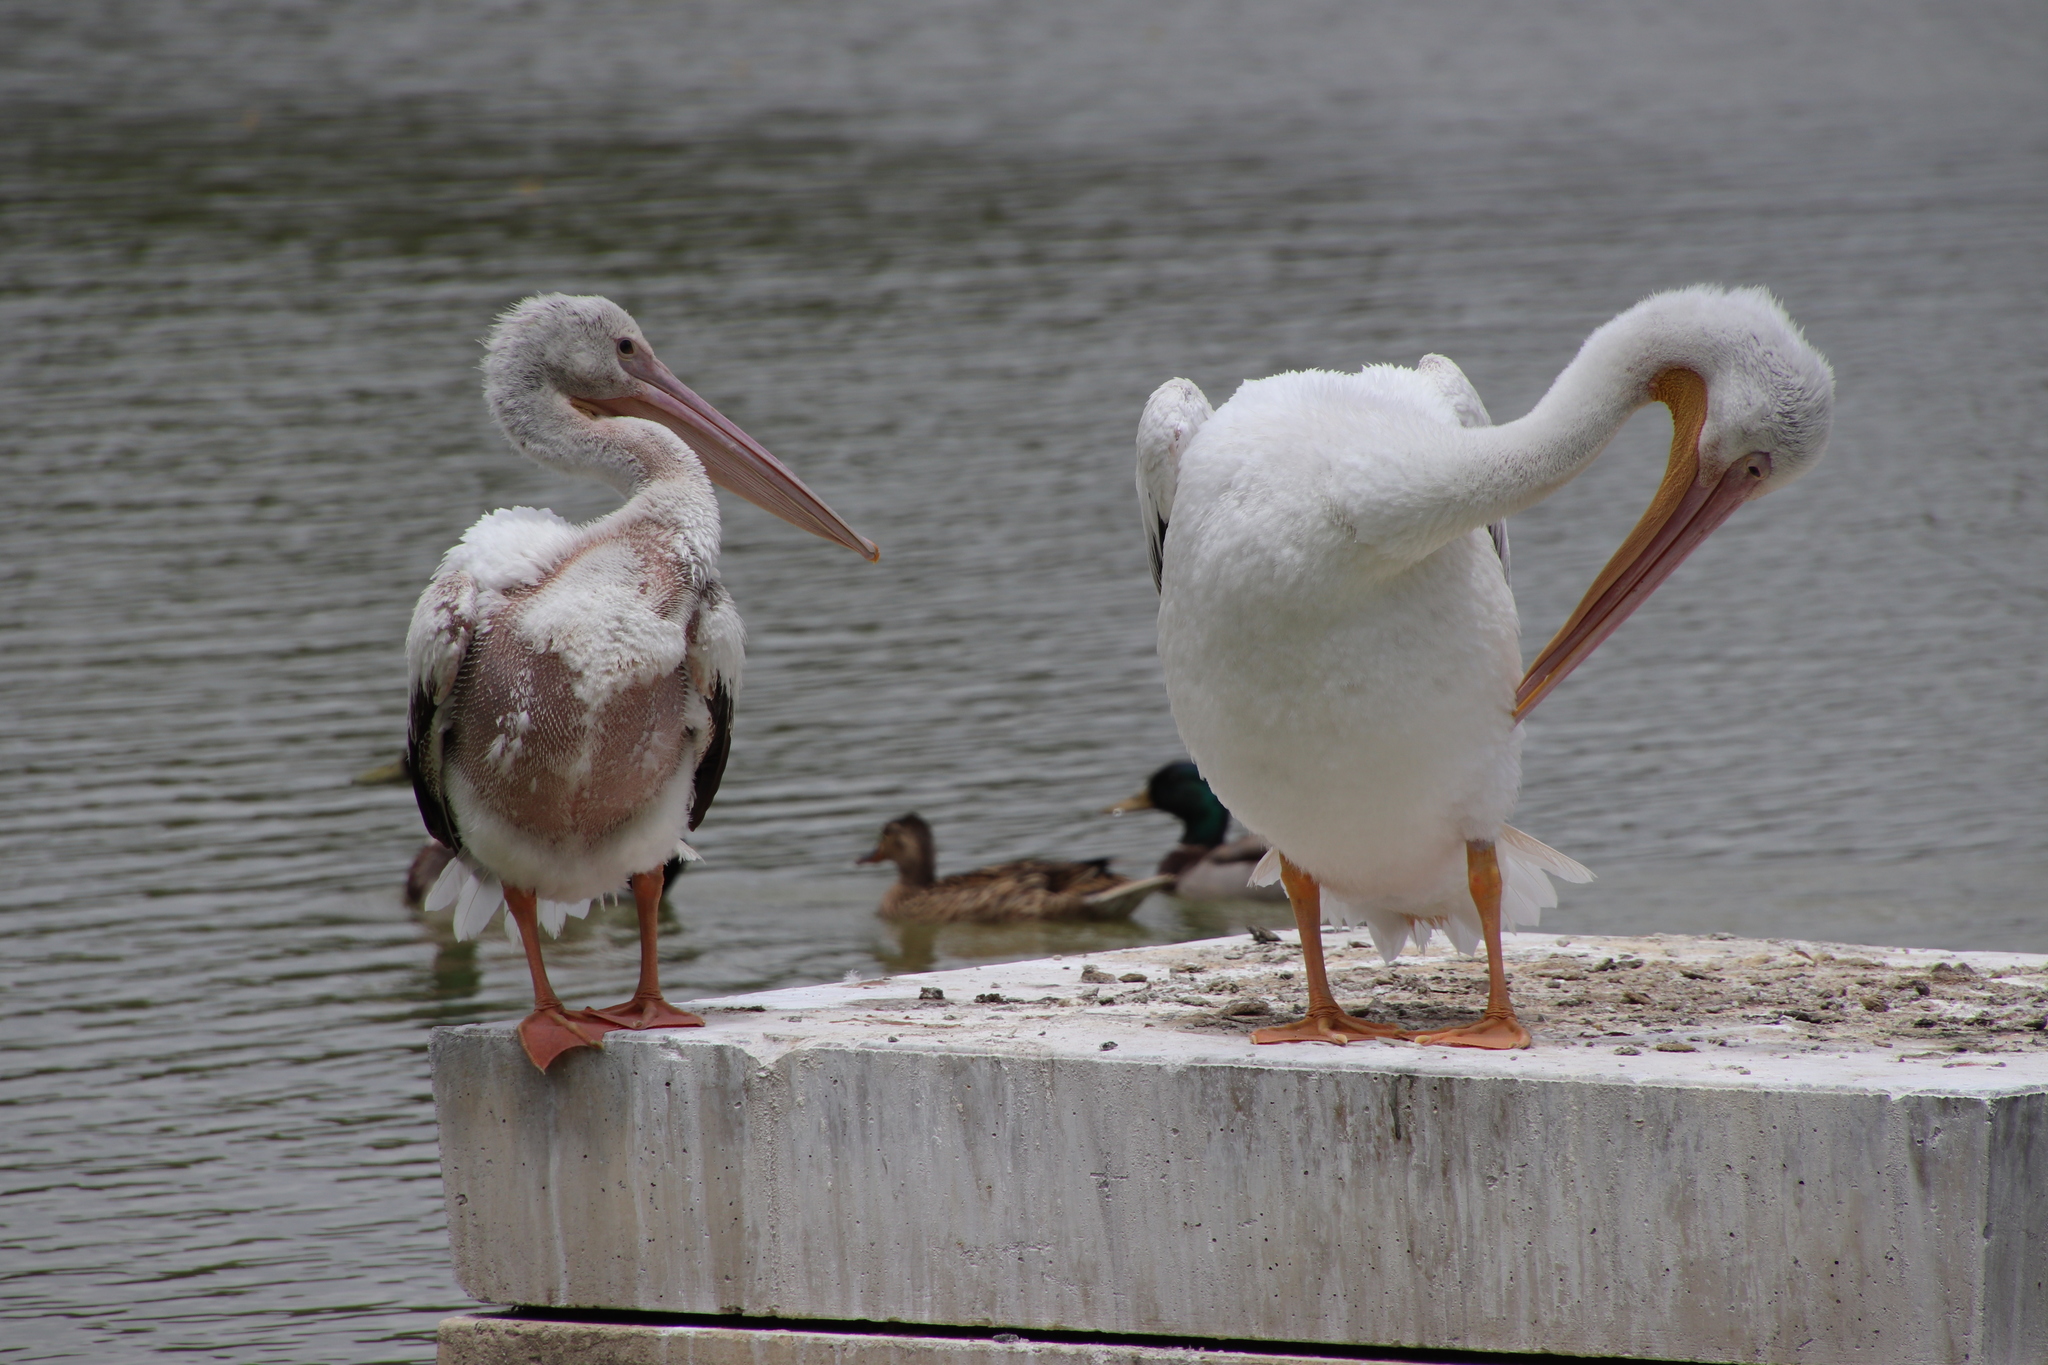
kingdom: Animalia
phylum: Chordata
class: Aves
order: Pelecaniformes
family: Pelecanidae
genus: Pelecanus
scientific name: Pelecanus erythrorhynchos
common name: American white pelican
